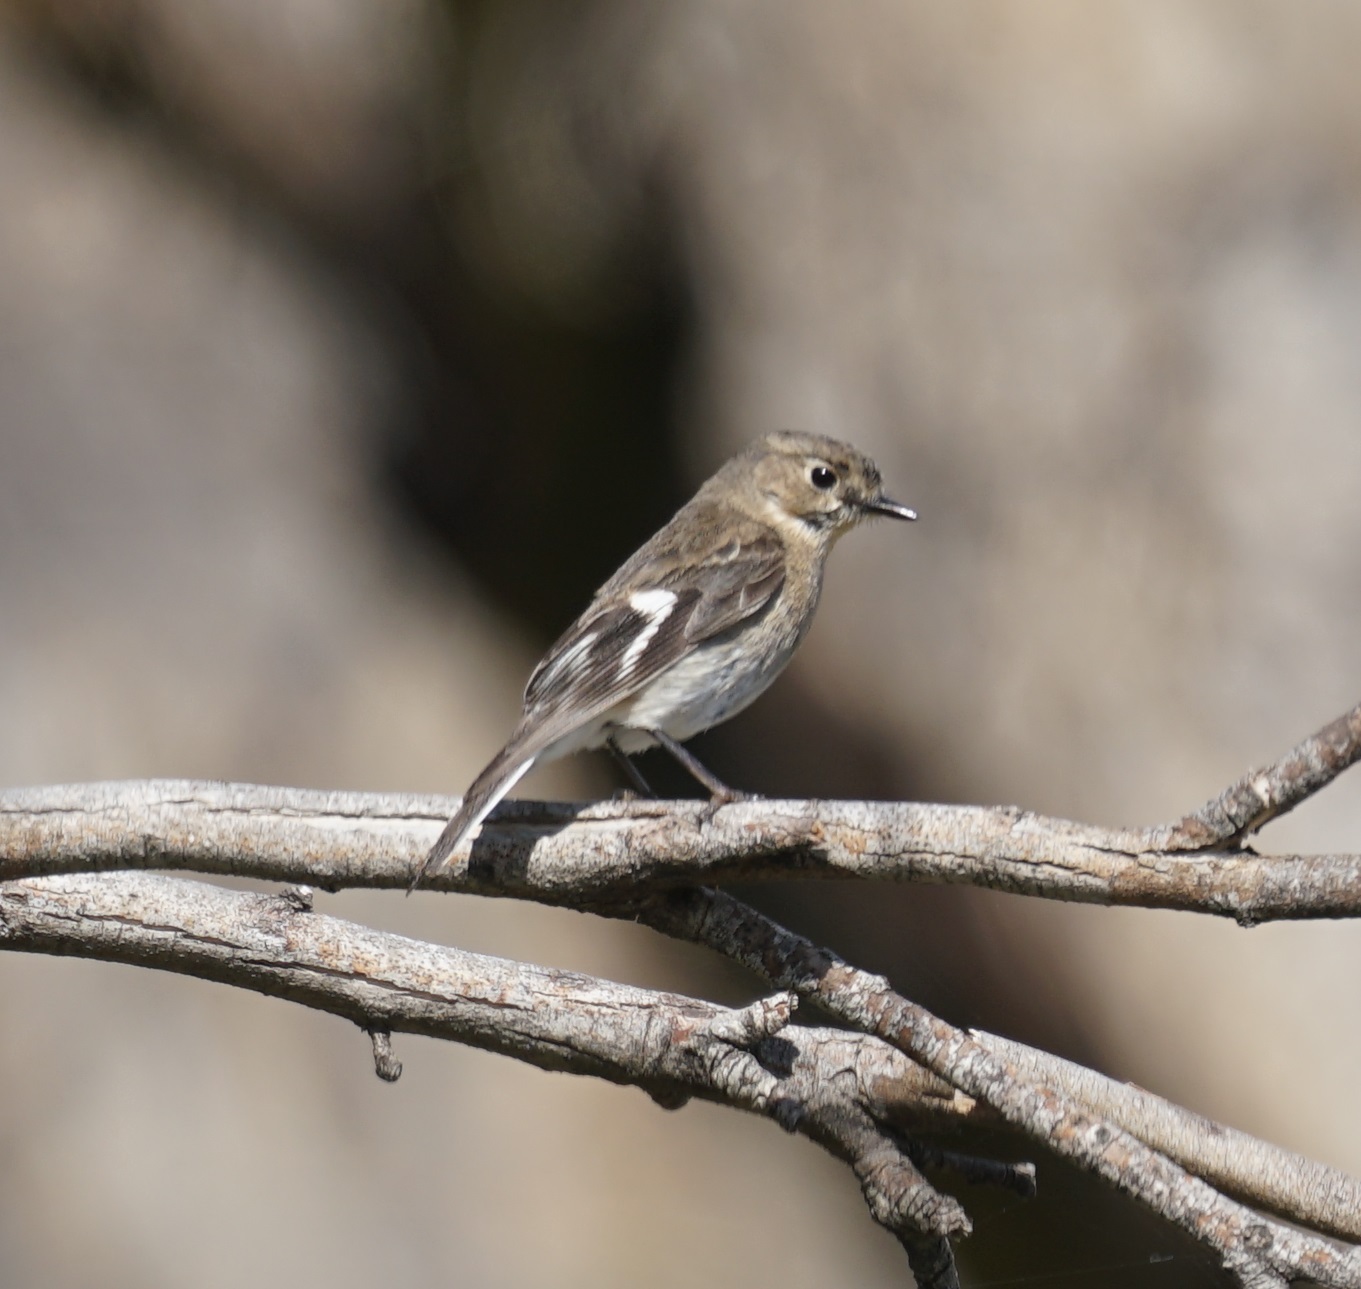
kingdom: Animalia
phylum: Chordata
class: Aves
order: Passeriformes
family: Petroicidae
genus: Petroica
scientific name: Petroica phoenicea
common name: Flame robin
